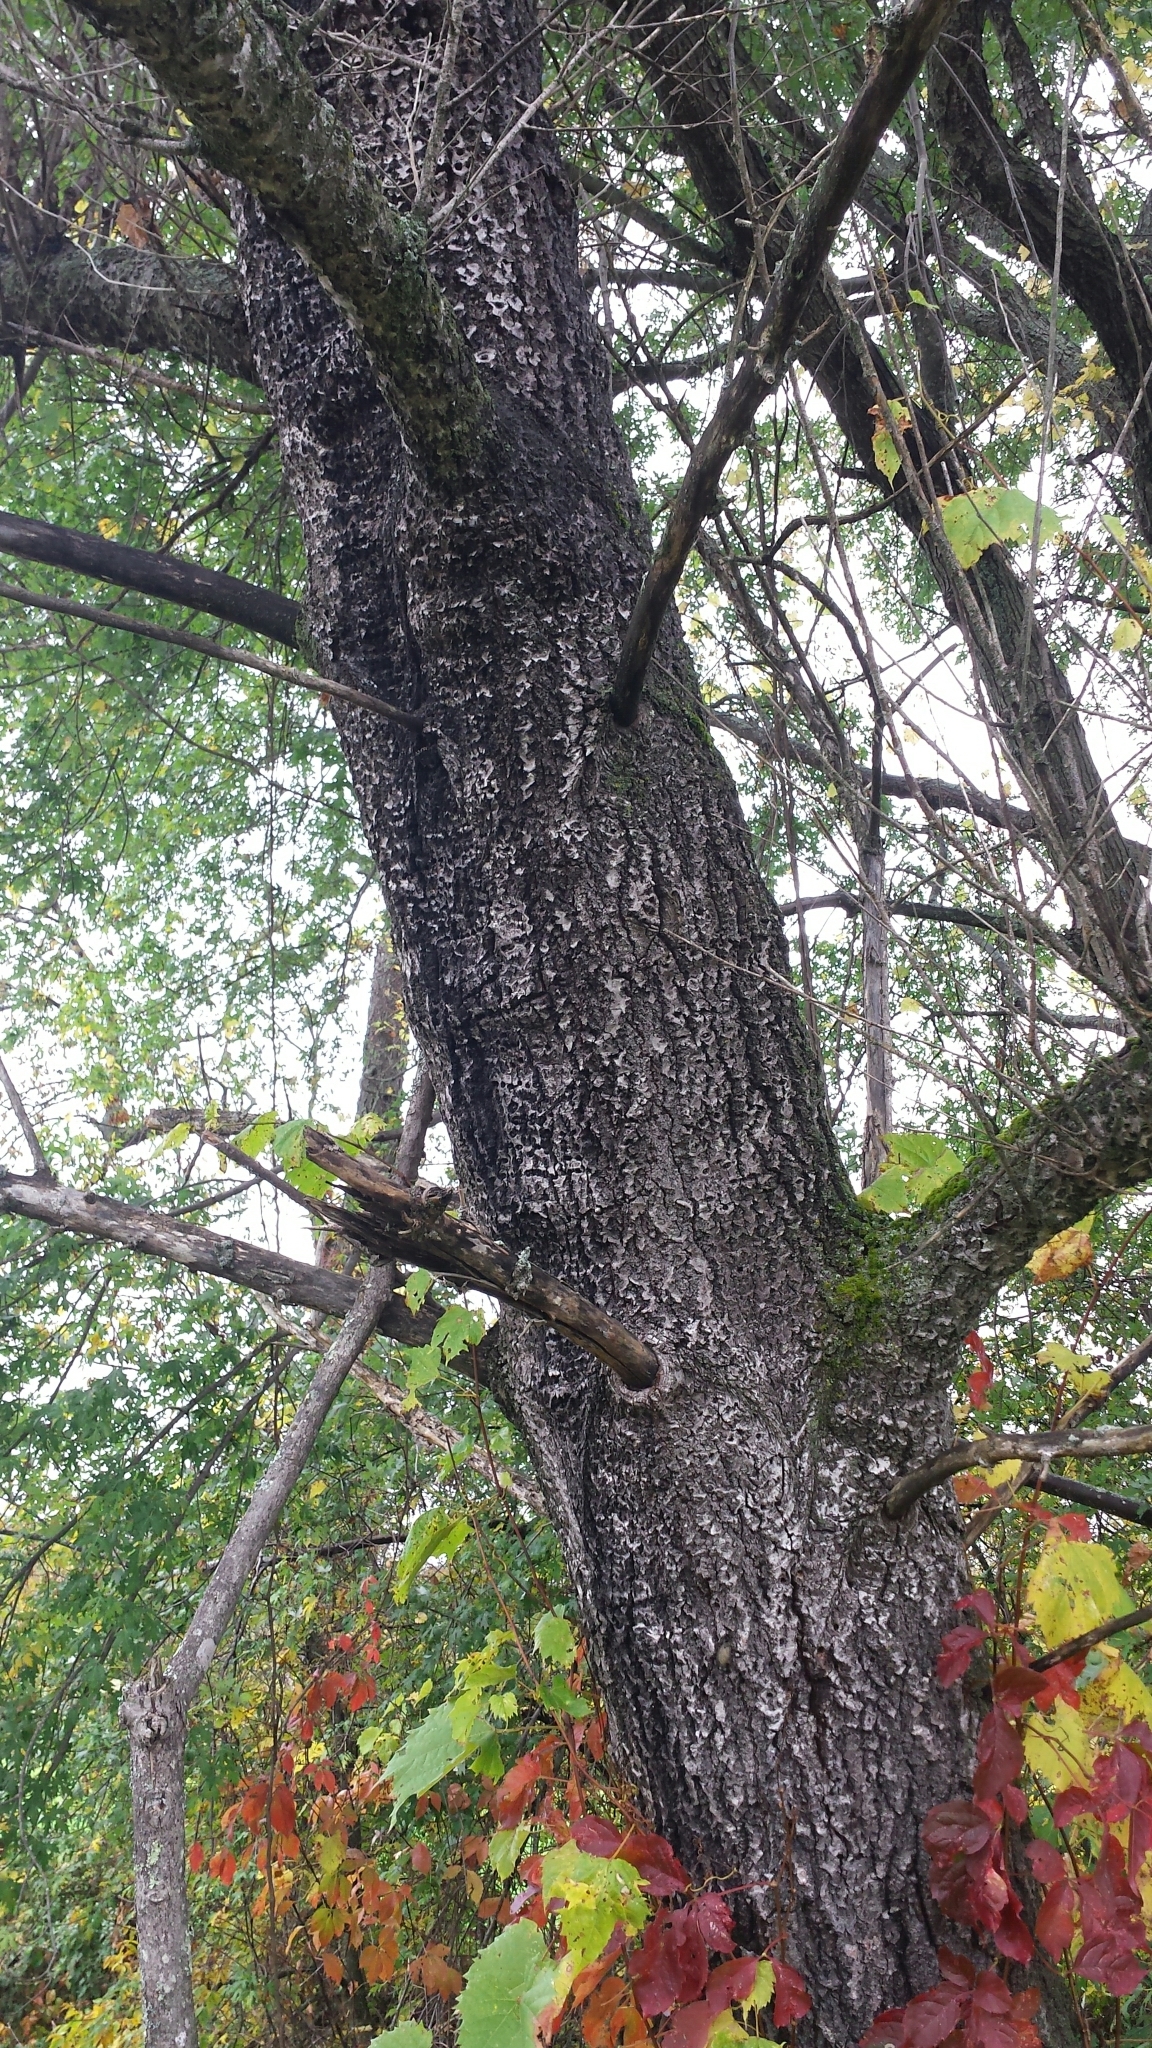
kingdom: Plantae
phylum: Tracheophyta
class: Magnoliopsida
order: Malpighiales
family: Salicaceae
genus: Populus
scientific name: Populus alba
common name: White poplar
